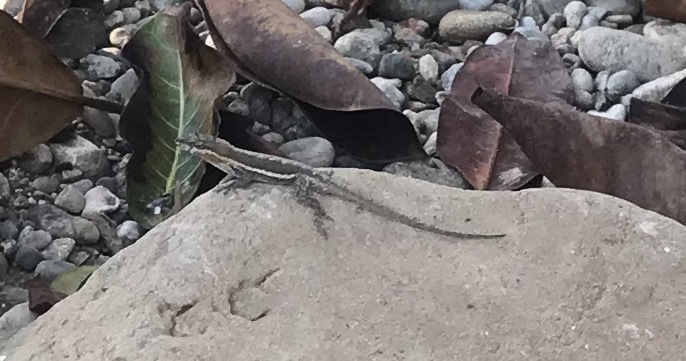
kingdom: Animalia
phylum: Chordata
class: Squamata
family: Dactyloidae
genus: Anolis
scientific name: Anolis nebulosus
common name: Clouded anole
